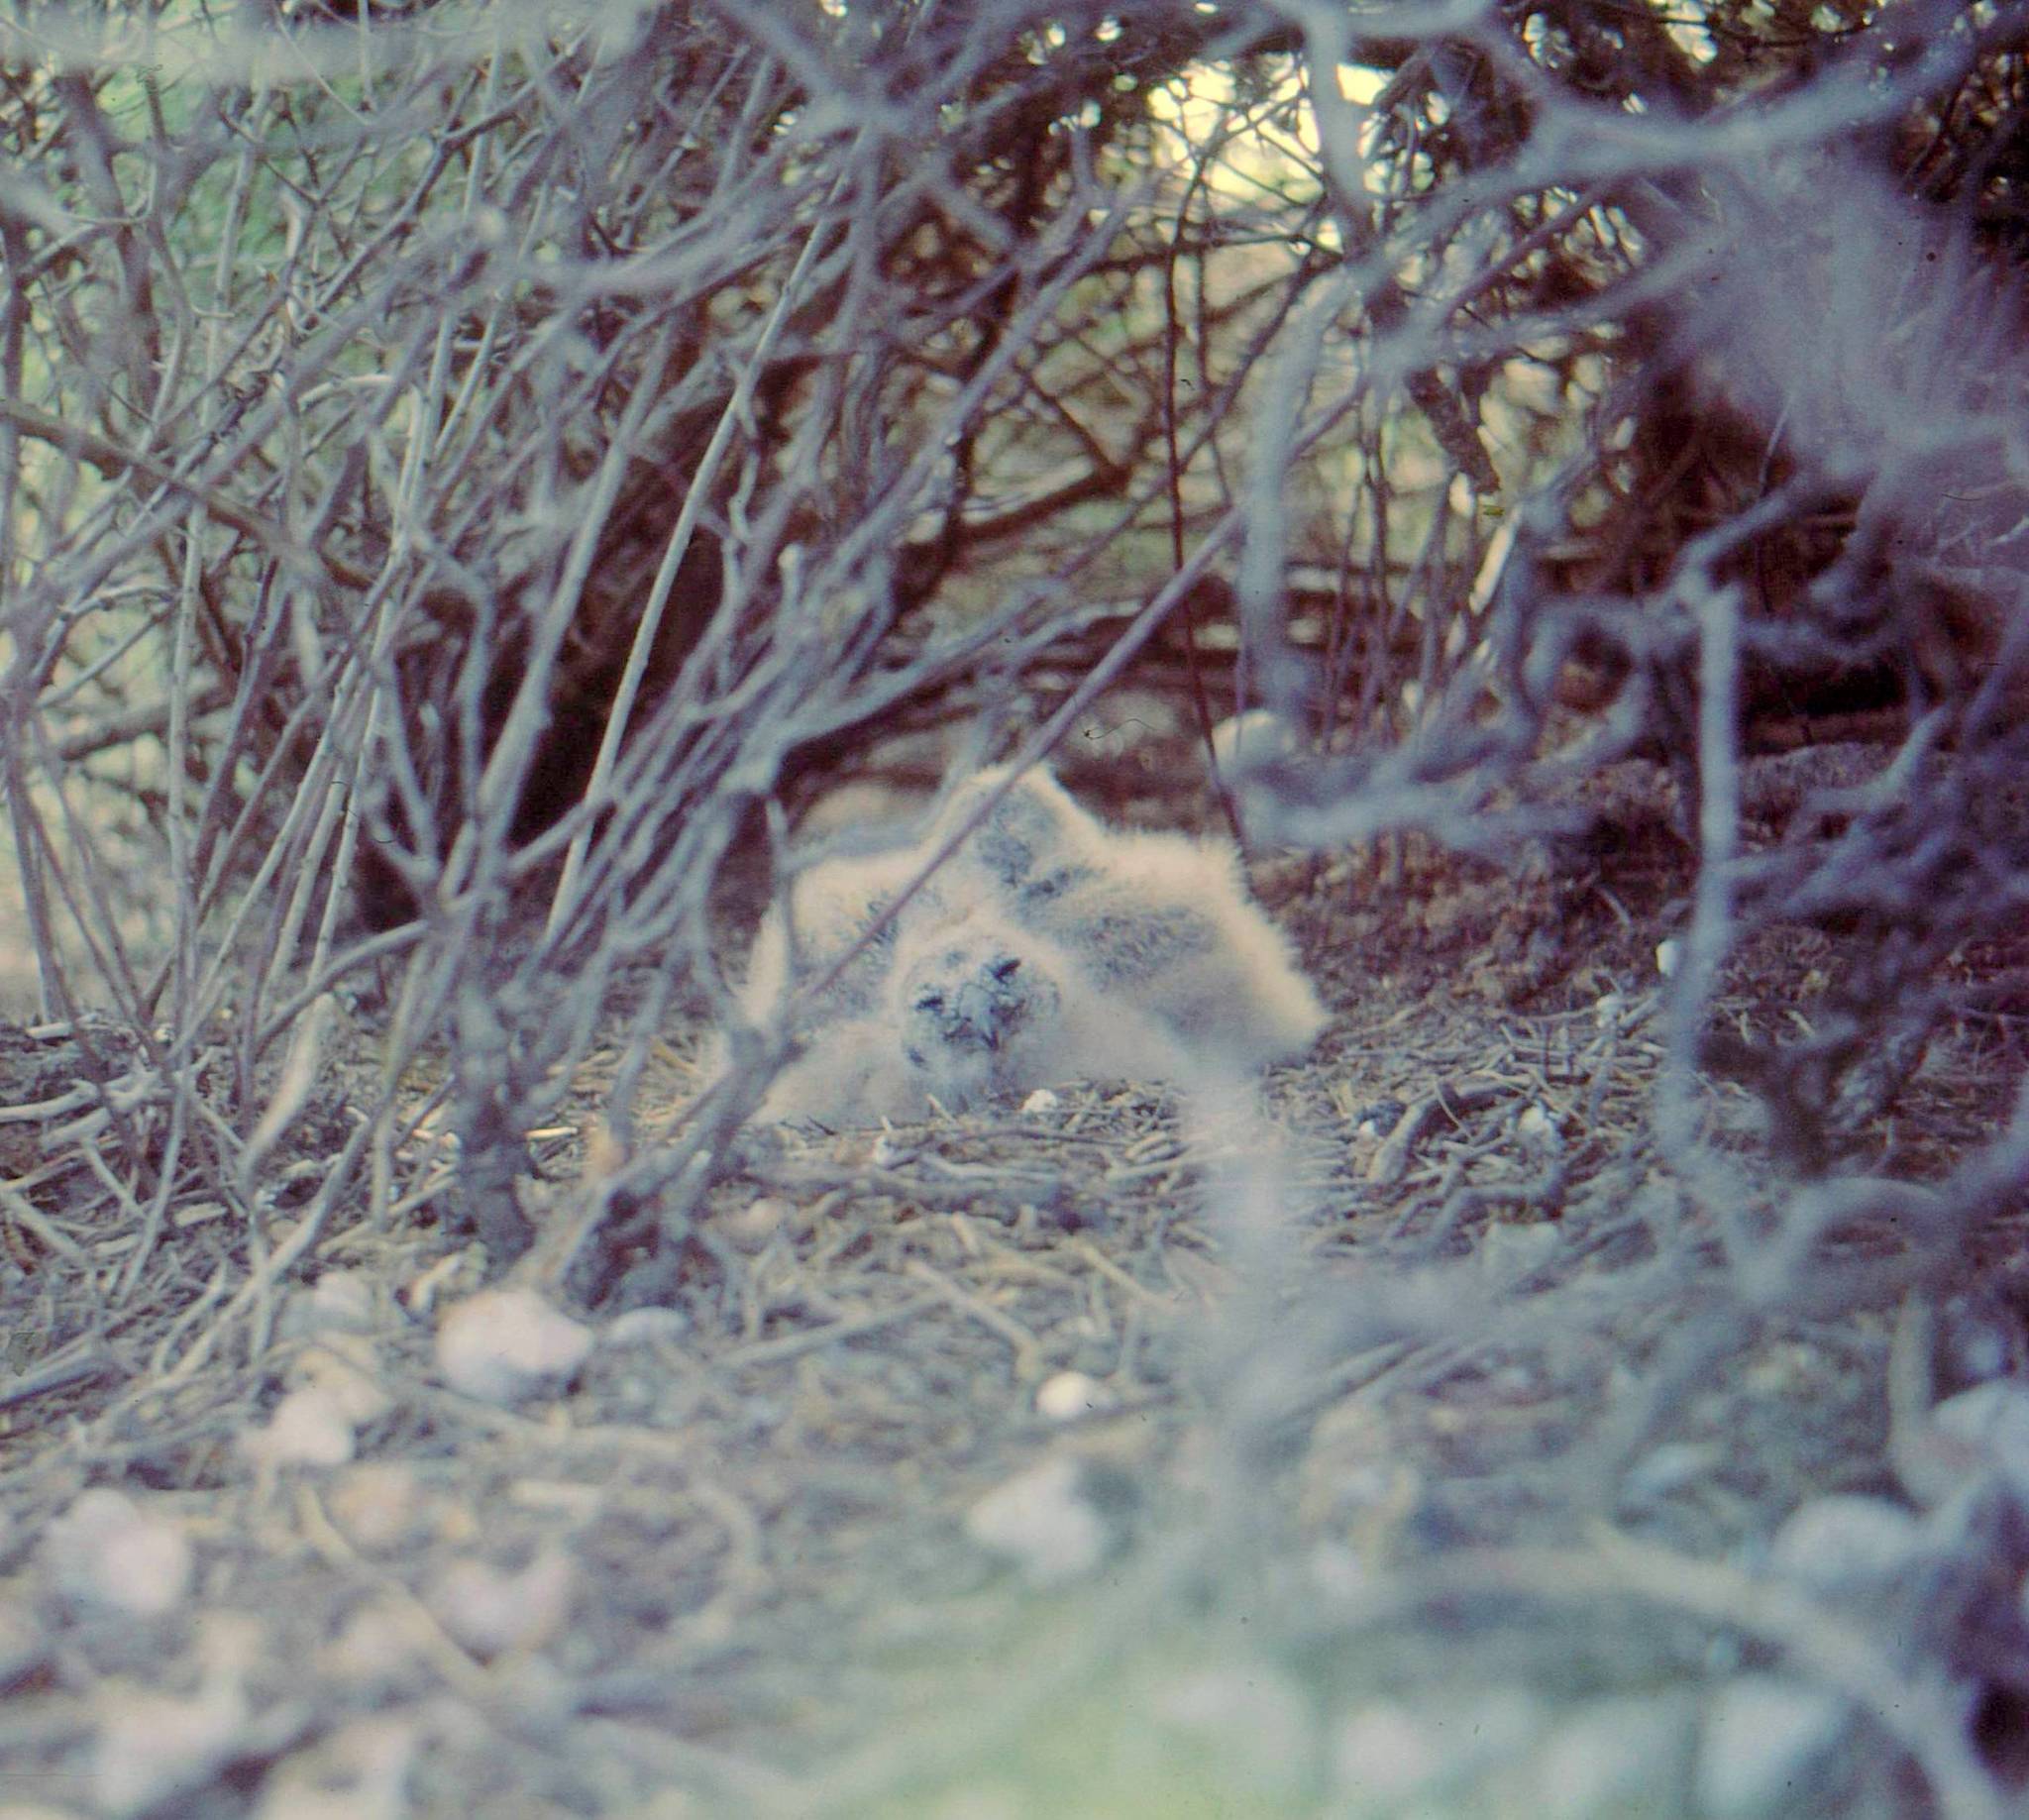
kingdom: Animalia
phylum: Chordata
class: Aves
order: Strigiformes
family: Strigidae
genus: Asio
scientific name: Asio capensis
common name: Marsh owl
